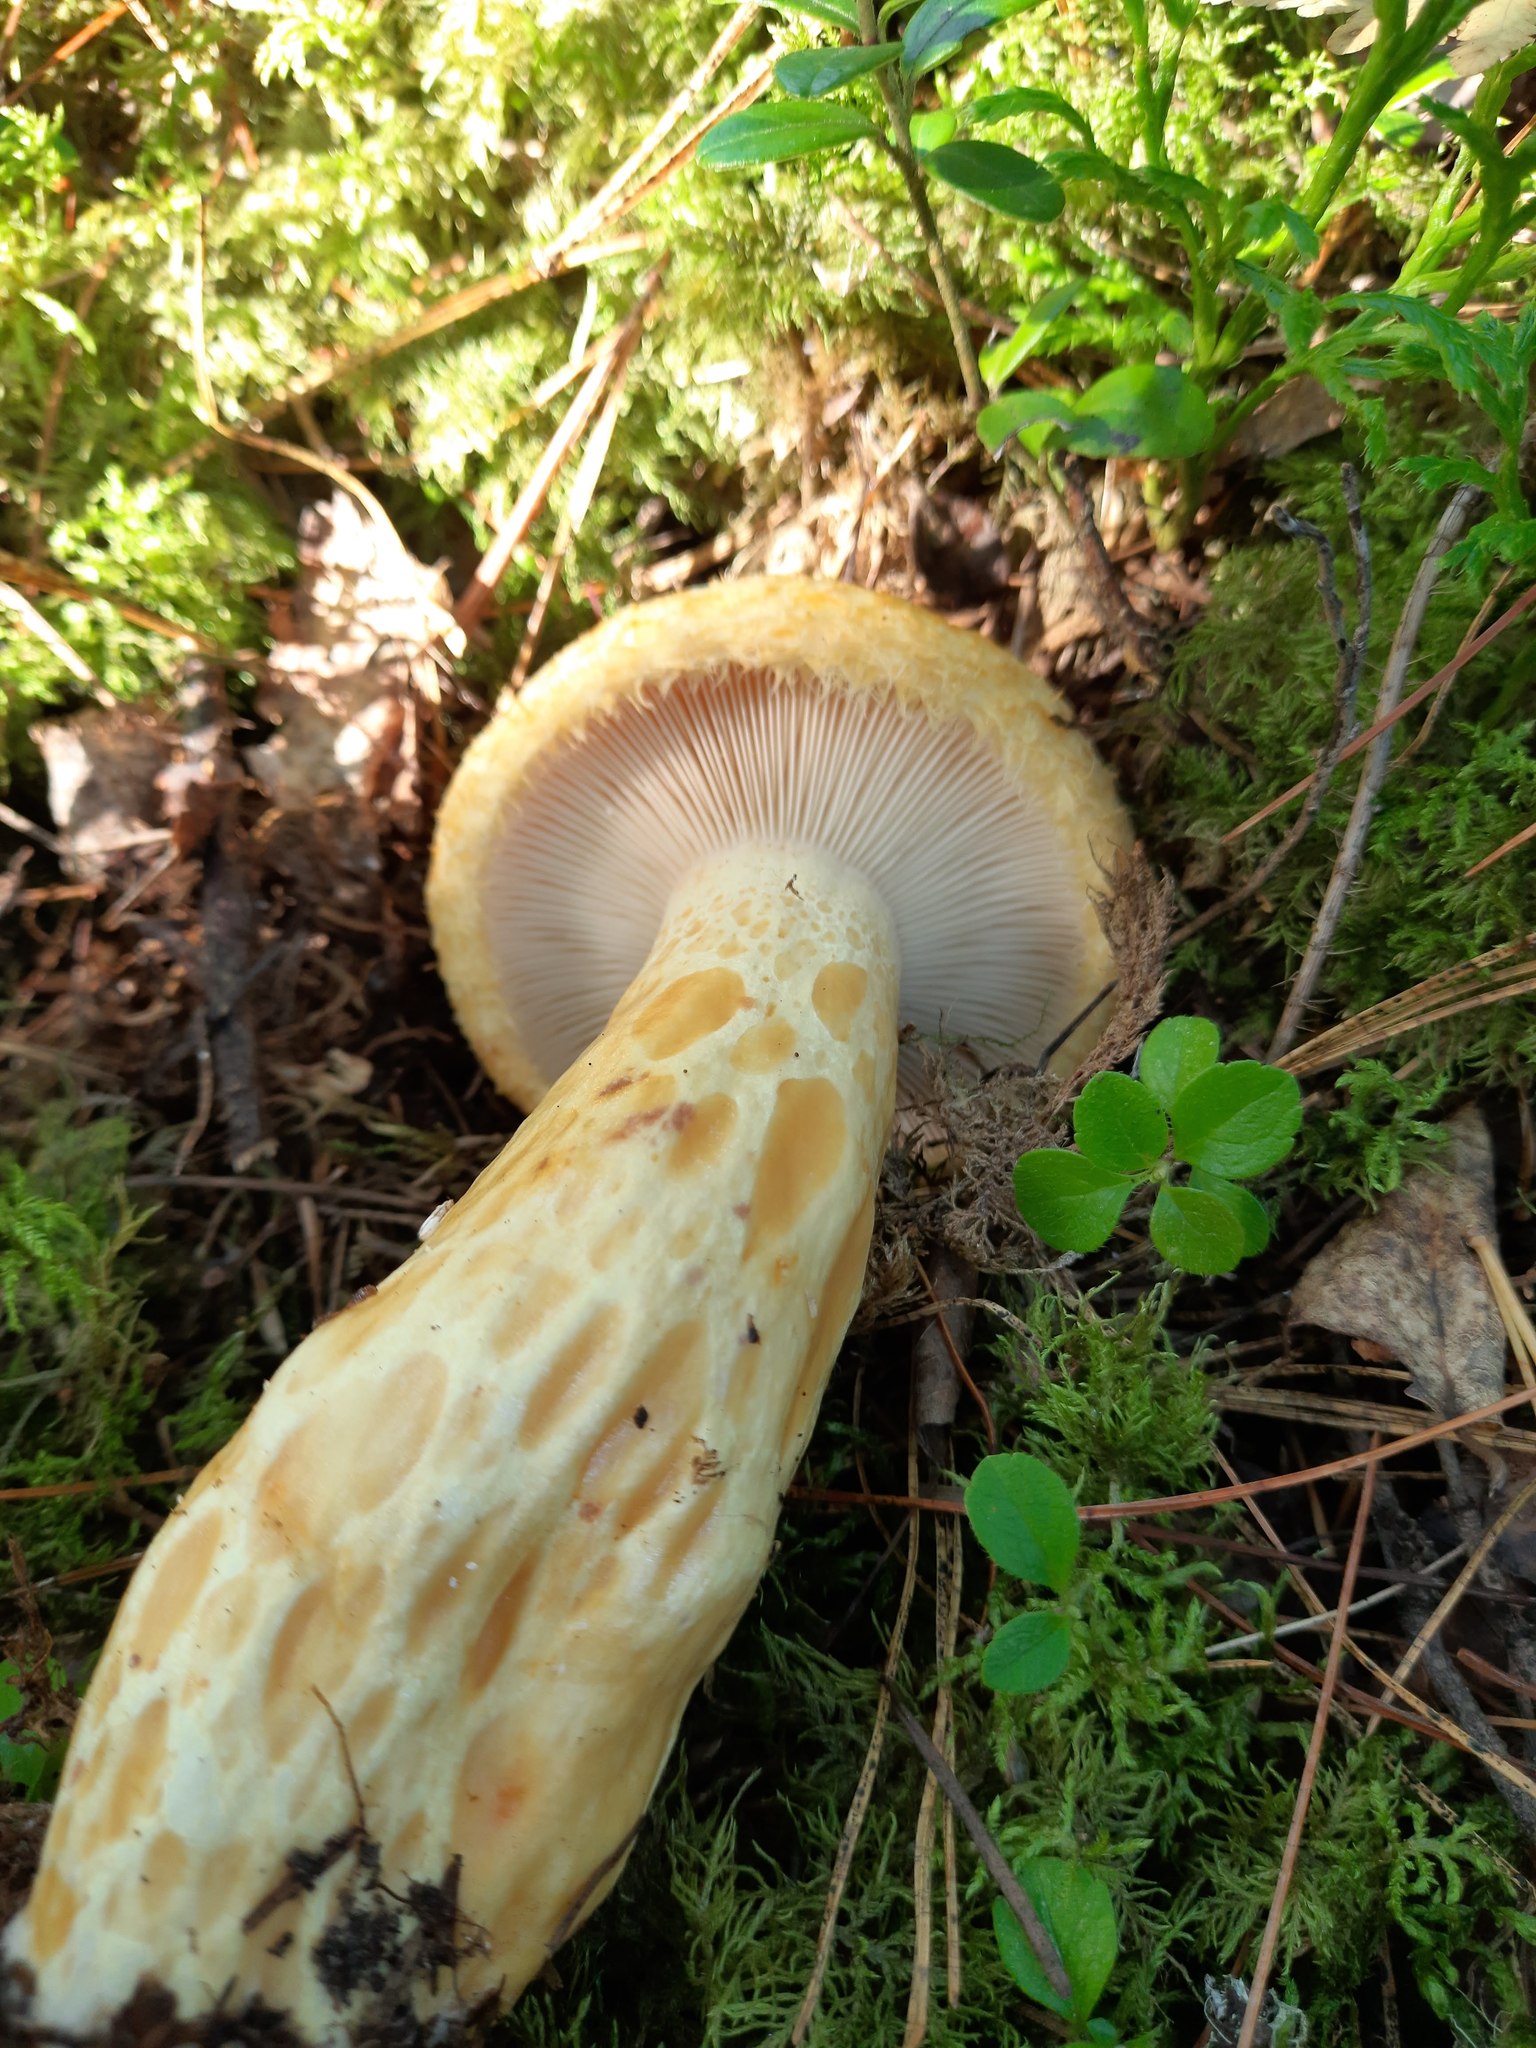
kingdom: Fungi
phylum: Basidiomycota
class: Agaricomycetes
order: Russulales
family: Russulaceae
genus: Lactarius
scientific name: Lactarius repraesentaneus
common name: Yellow bearded milkcap
